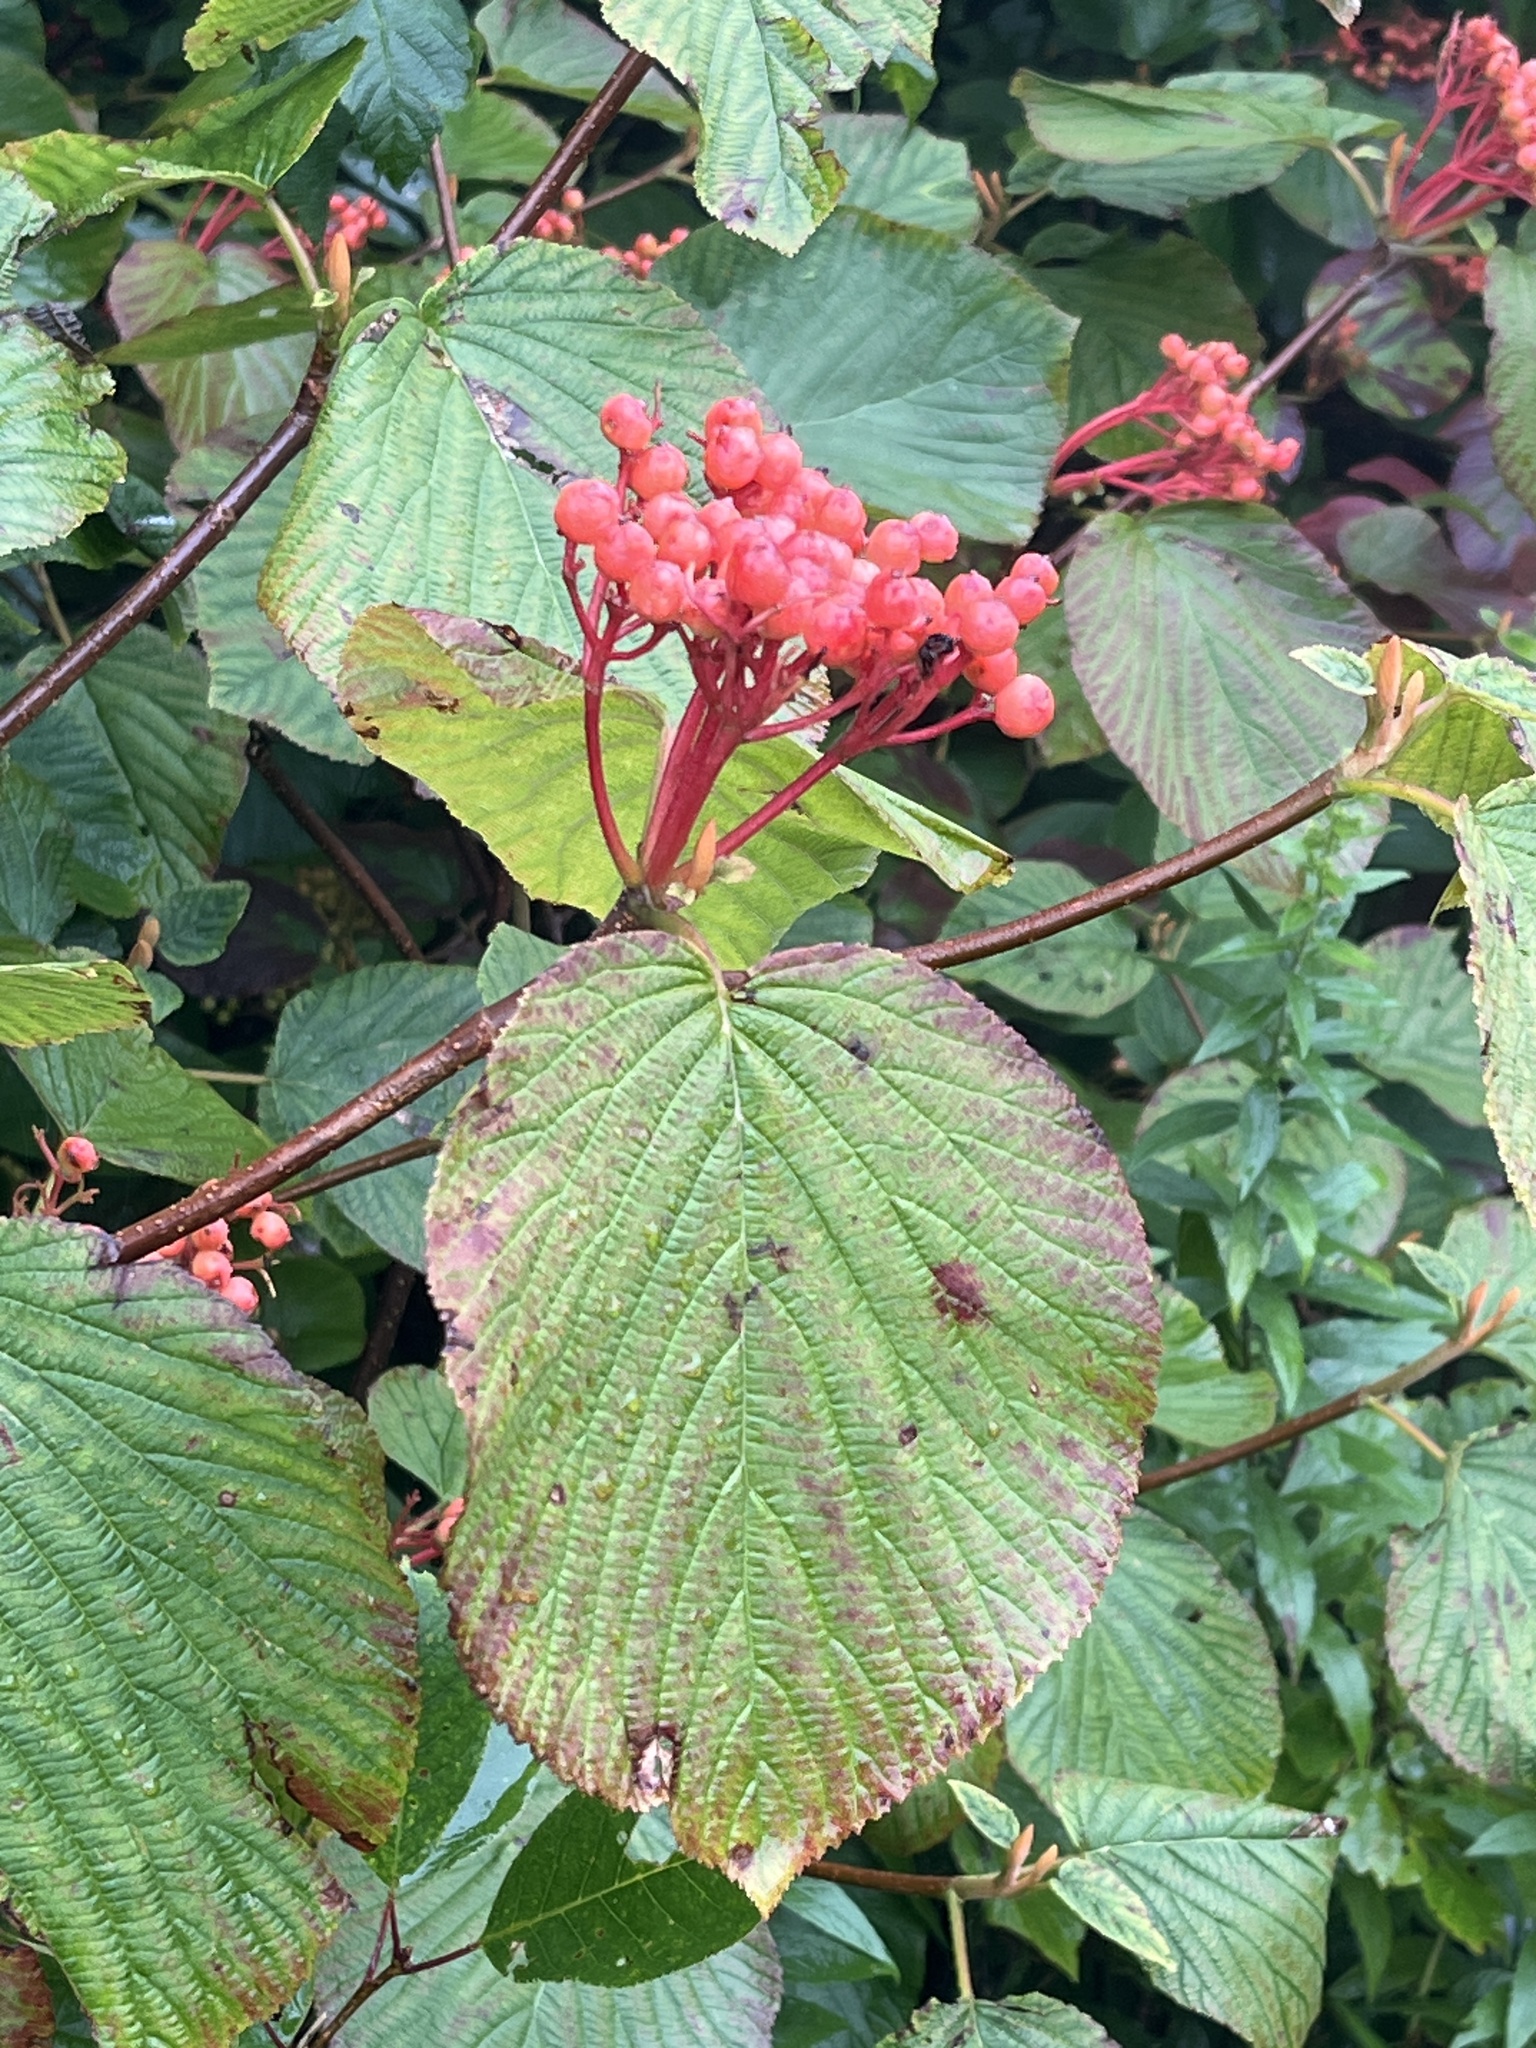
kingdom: Plantae
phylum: Tracheophyta
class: Magnoliopsida
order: Dipsacales
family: Viburnaceae
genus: Viburnum
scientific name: Viburnum lantanoides
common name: Hobblebush
